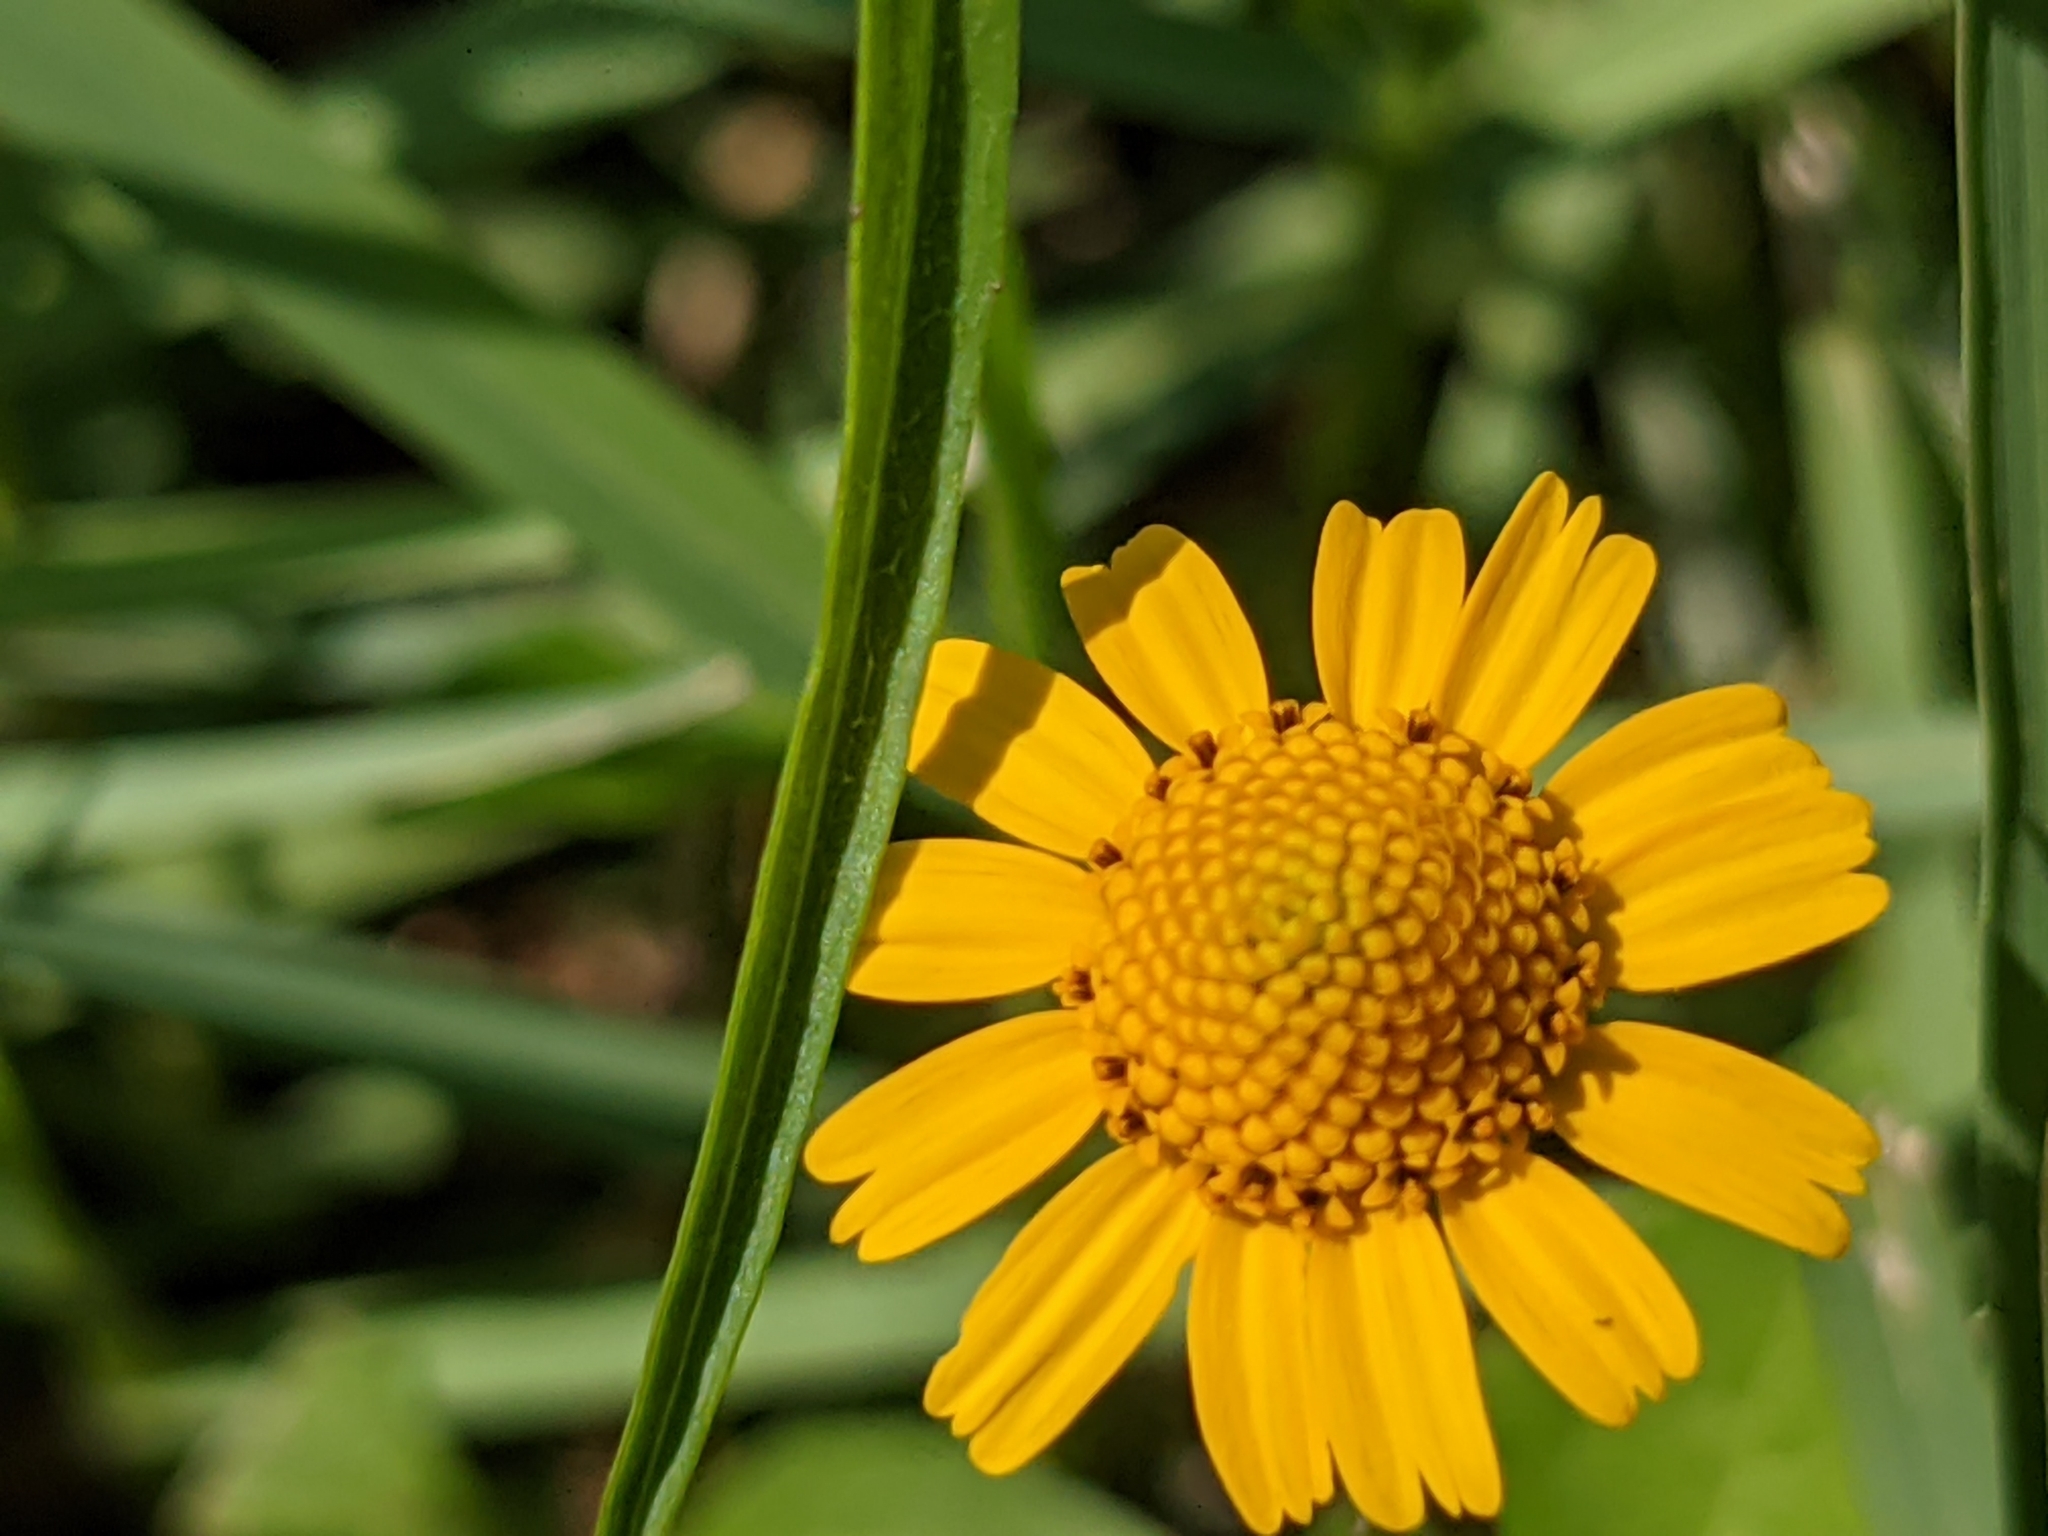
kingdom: Plantae
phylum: Tracheophyta
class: Magnoliopsida
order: Asterales
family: Asteraceae
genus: Acmella
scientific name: Acmella repens
